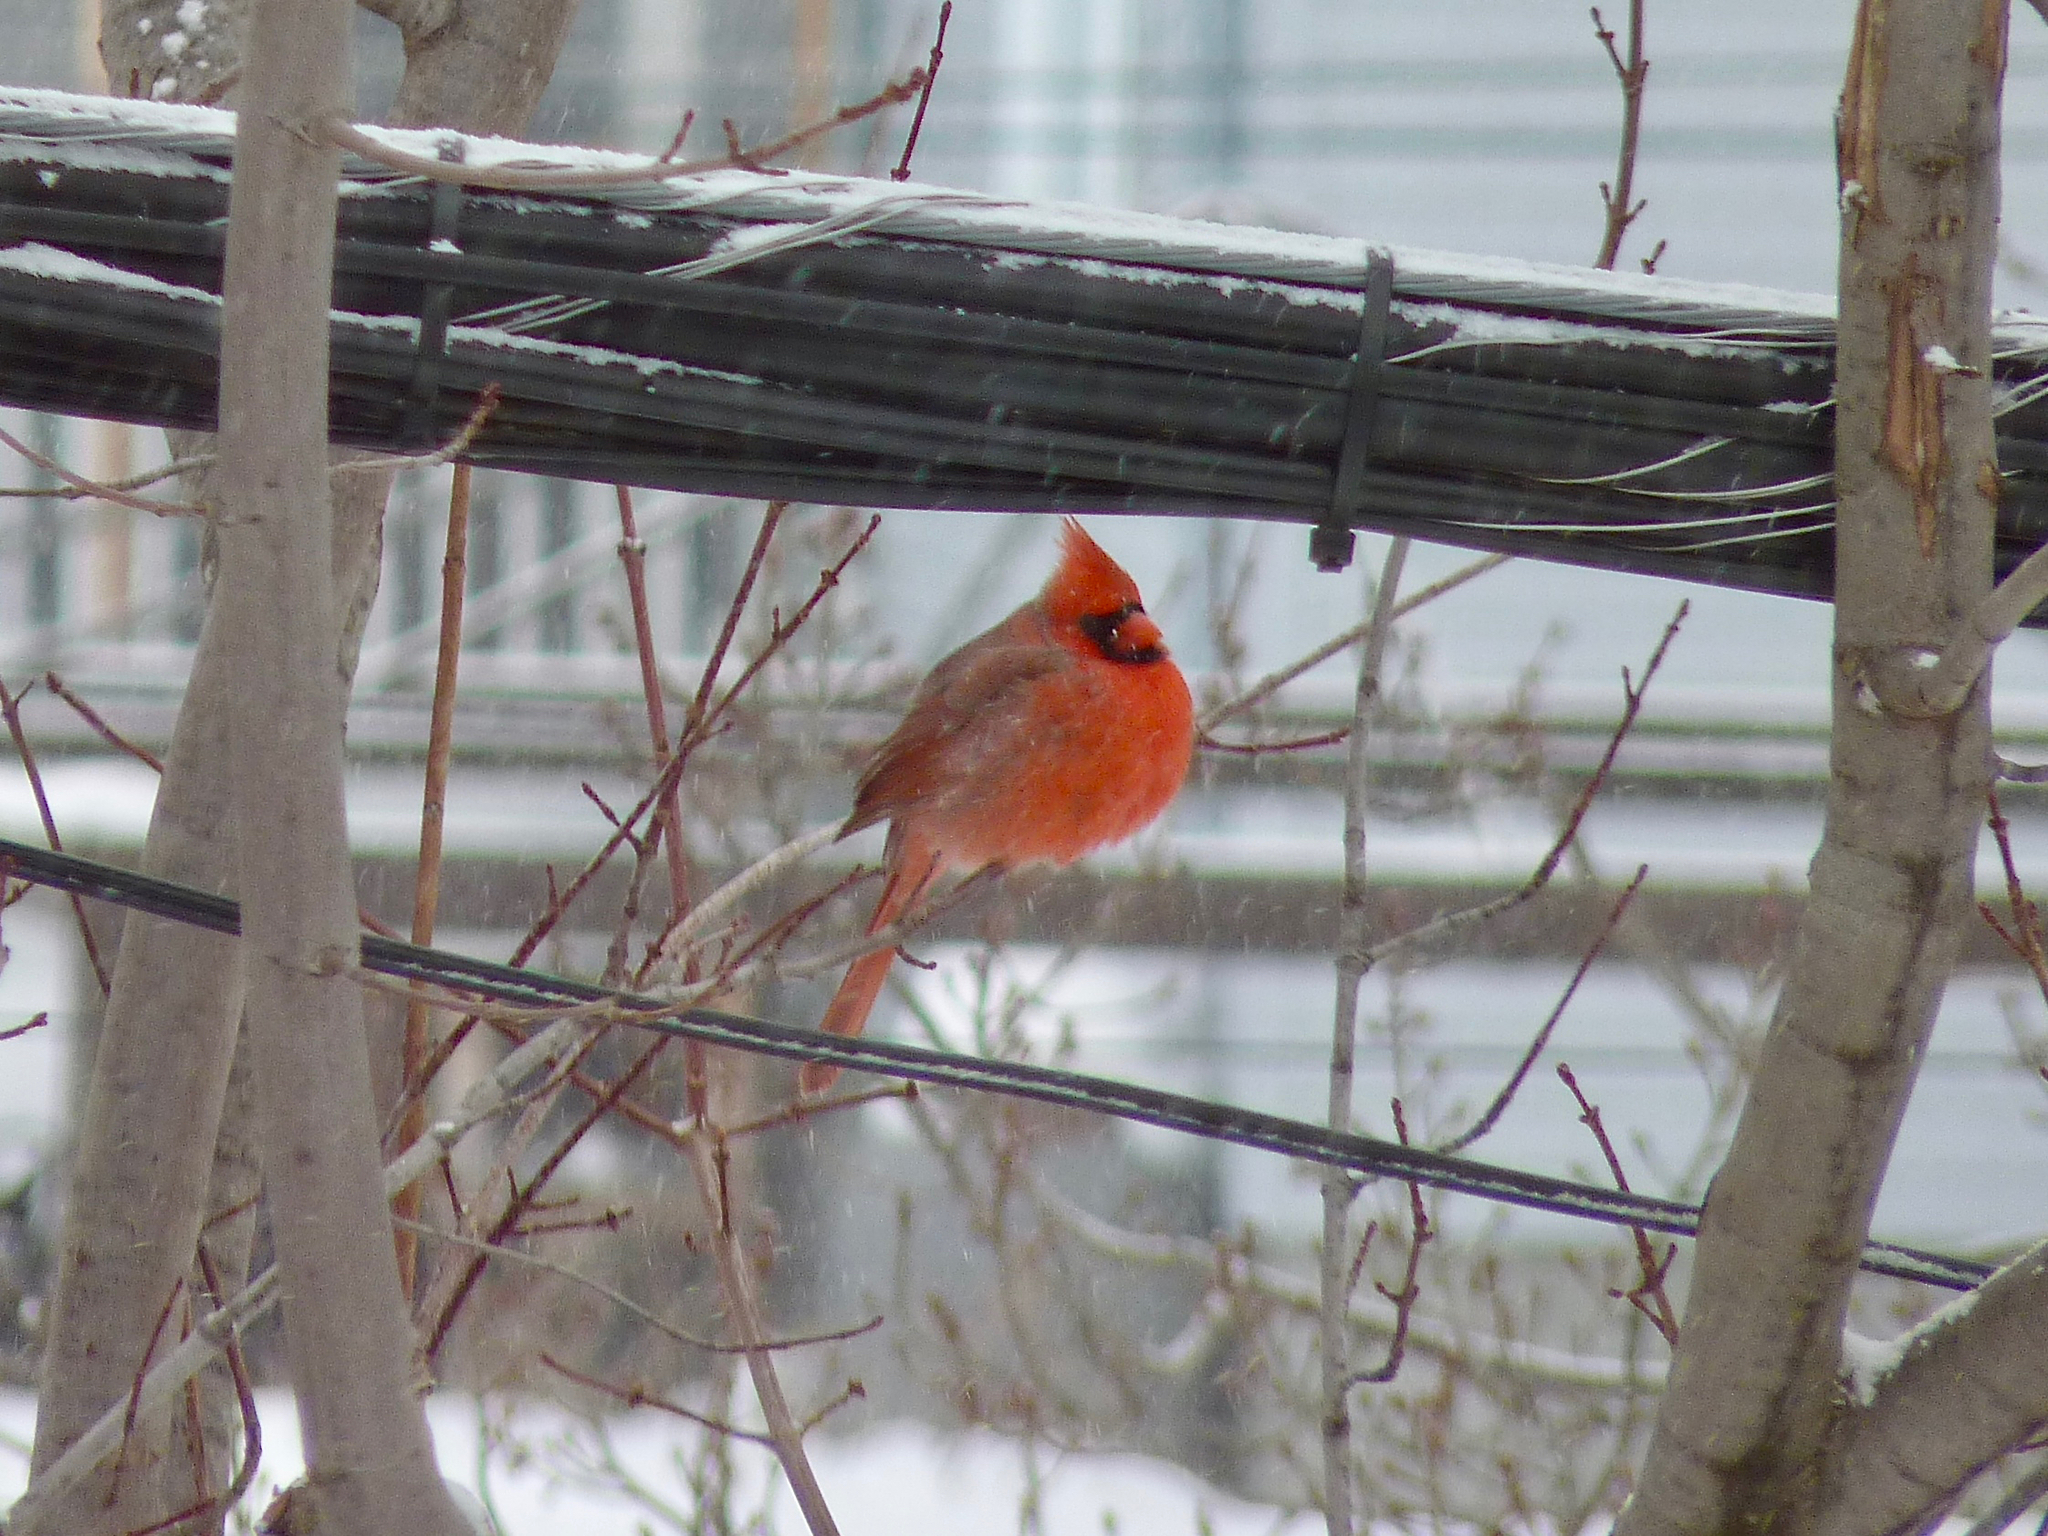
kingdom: Animalia
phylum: Chordata
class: Aves
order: Passeriformes
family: Cardinalidae
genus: Cardinalis
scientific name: Cardinalis cardinalis
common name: Northern cardinal
